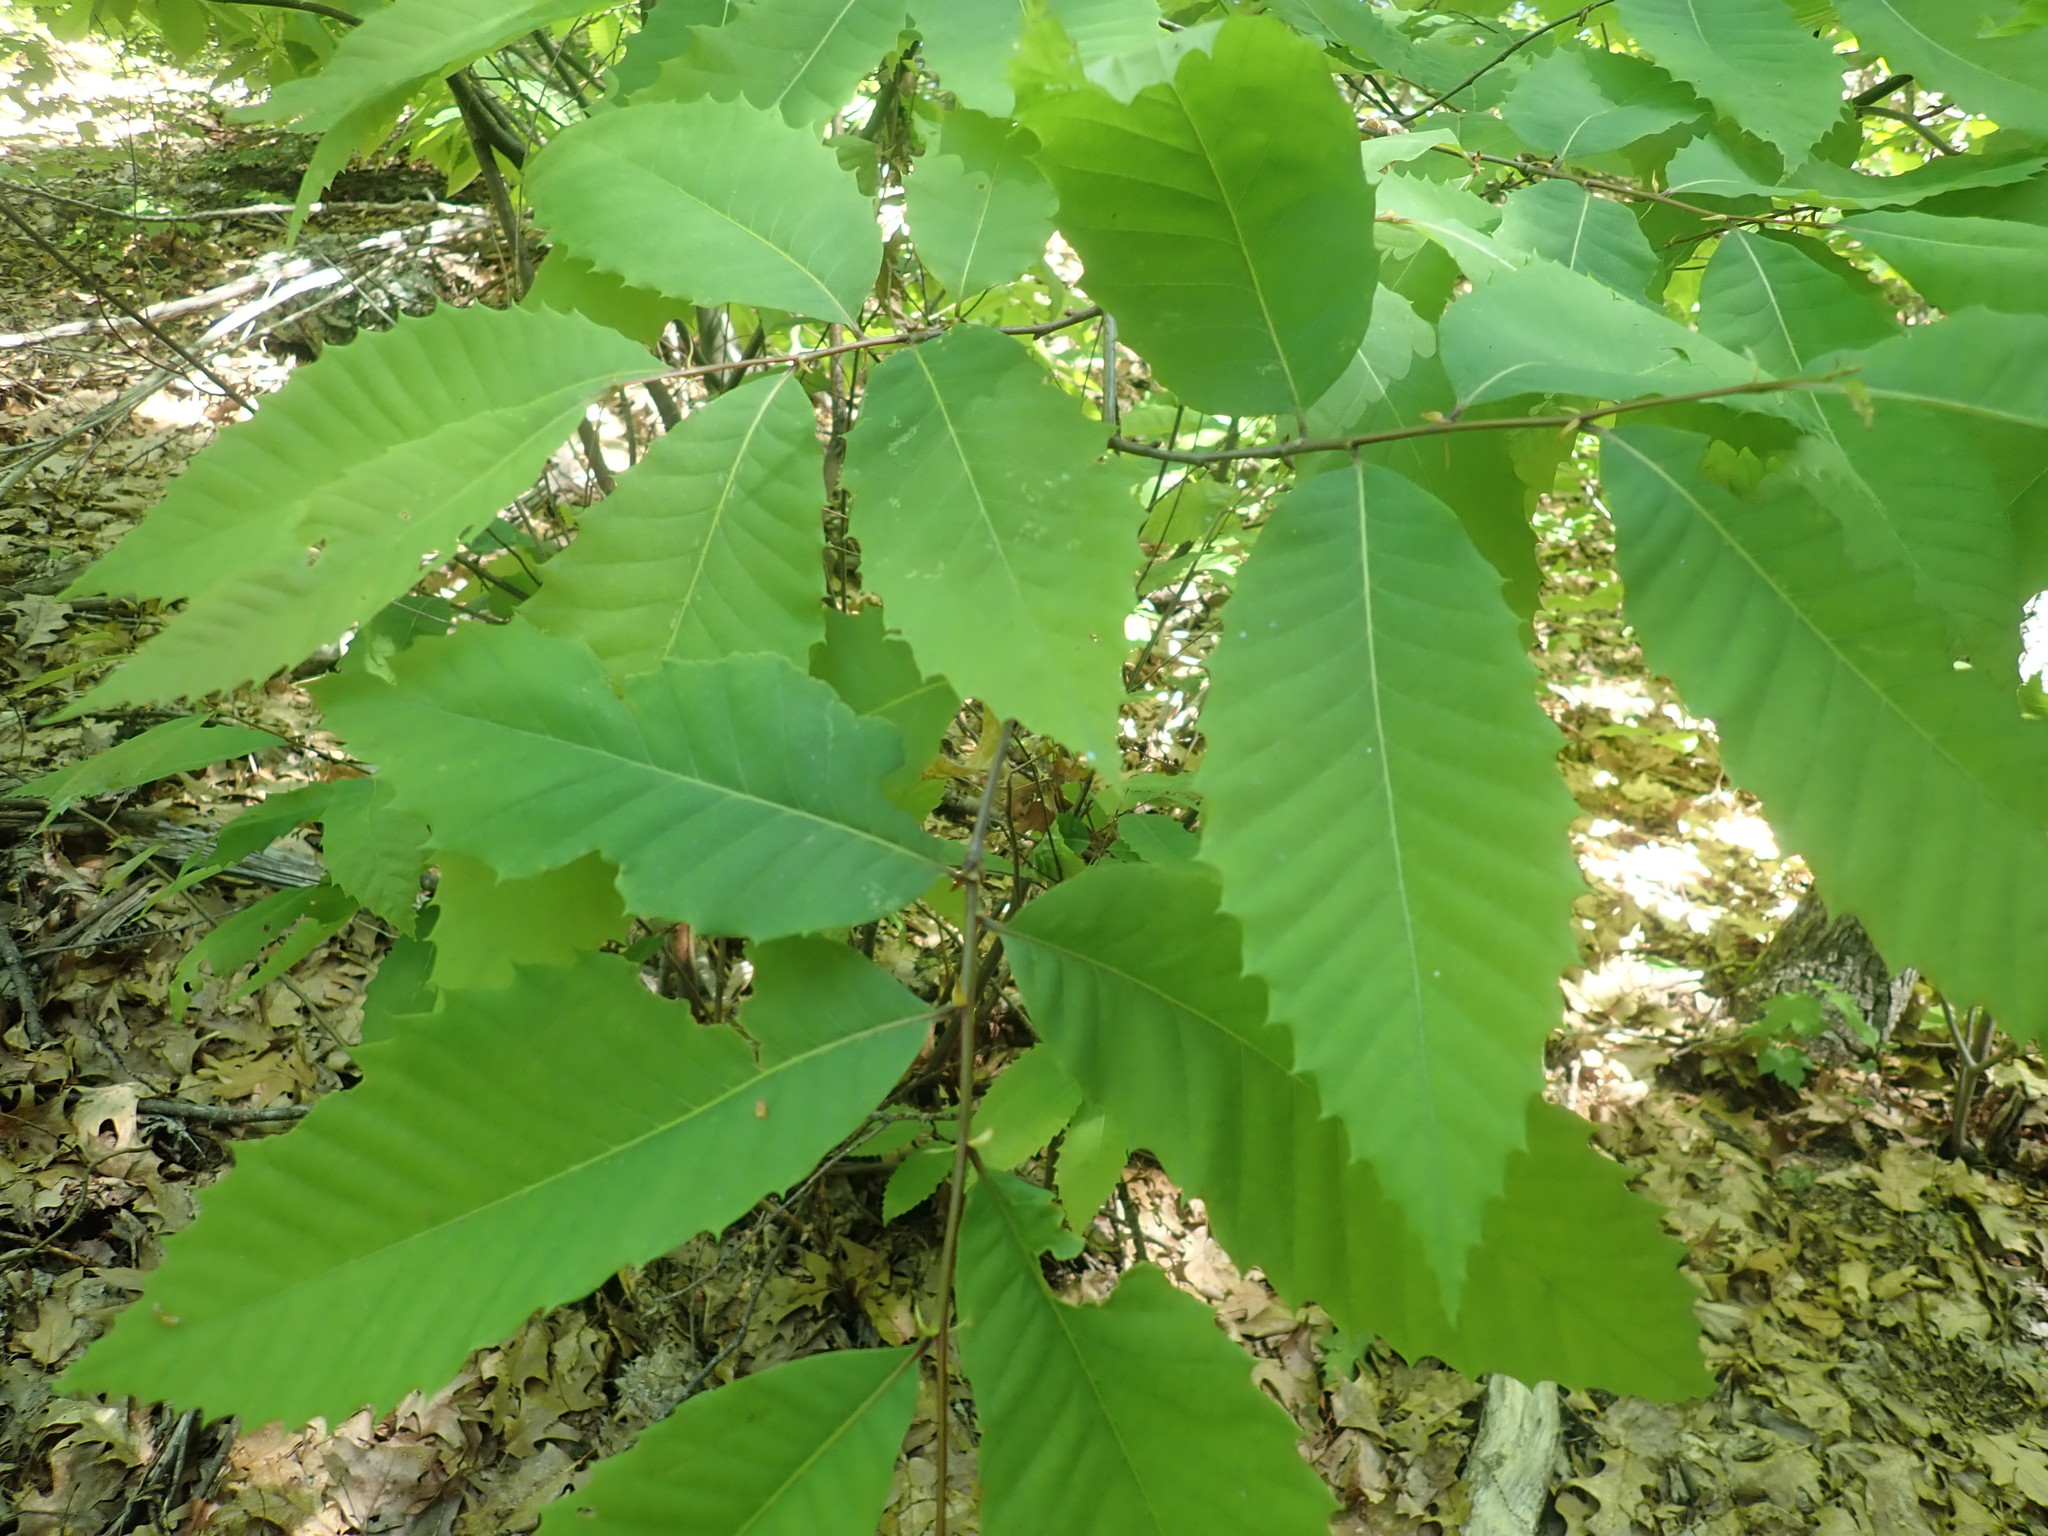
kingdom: Plantae
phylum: Tracheophyta
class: Magnoliopsida
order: Fagales
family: Fagaceae
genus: Castanea
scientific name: Castanea dentata
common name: American chestnut
